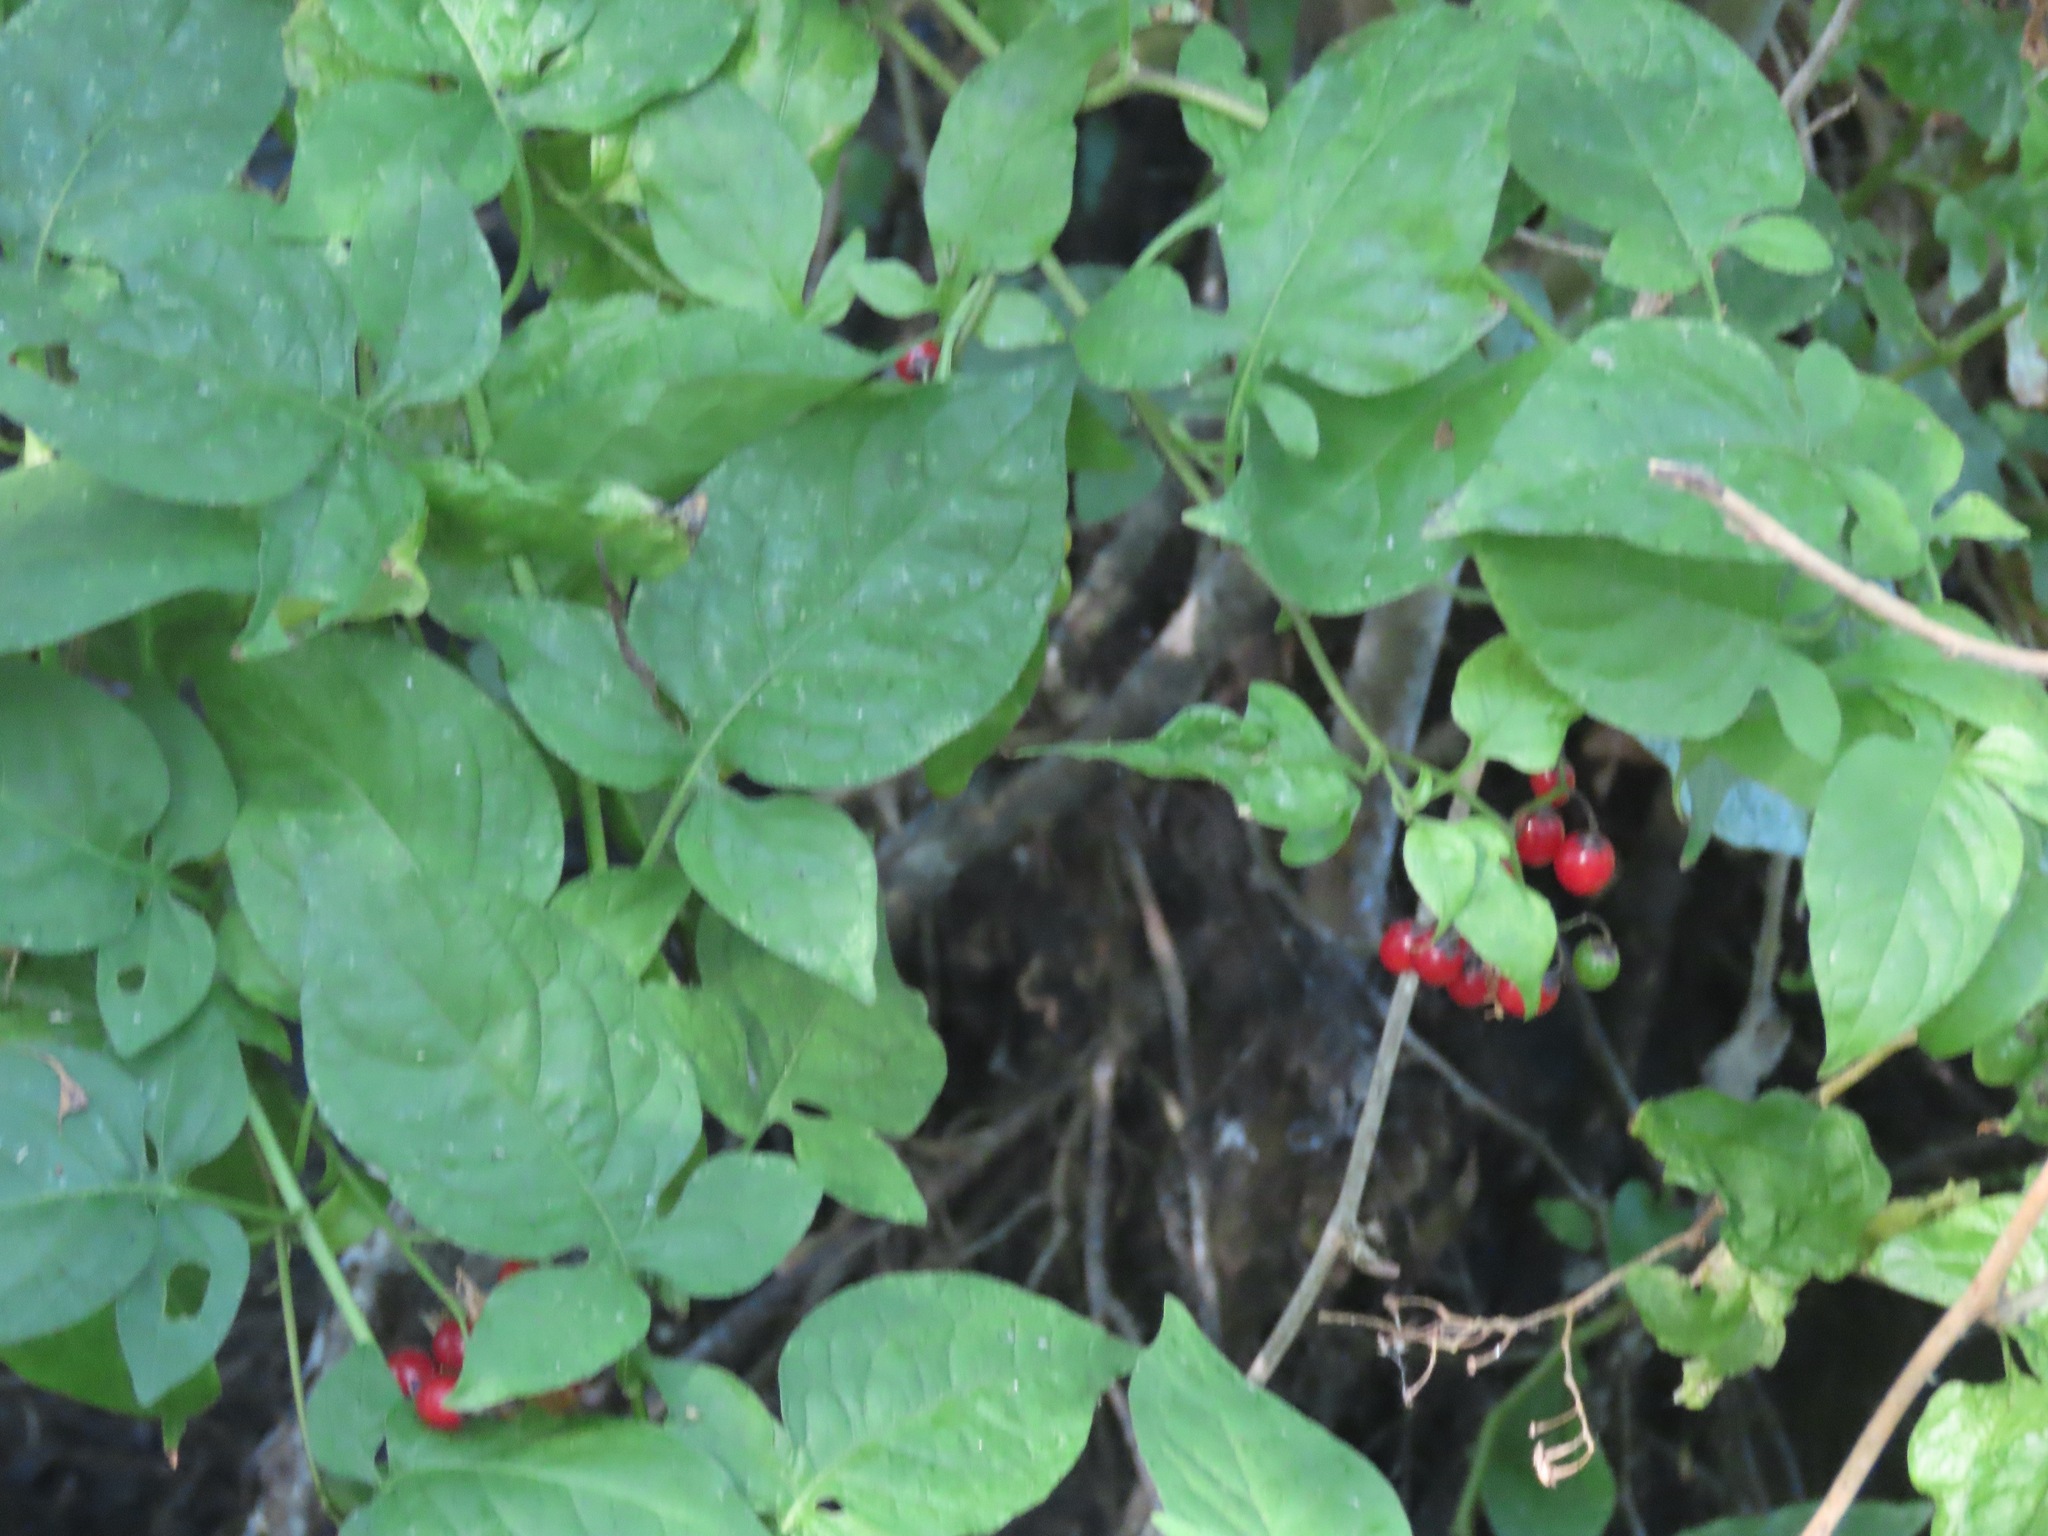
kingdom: Plantae
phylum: Tracheophyta
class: Magnoliopsida
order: Solanales
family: Solanaceae
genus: Solanum
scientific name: Solanum dulcamara
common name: Climbing nightshade
